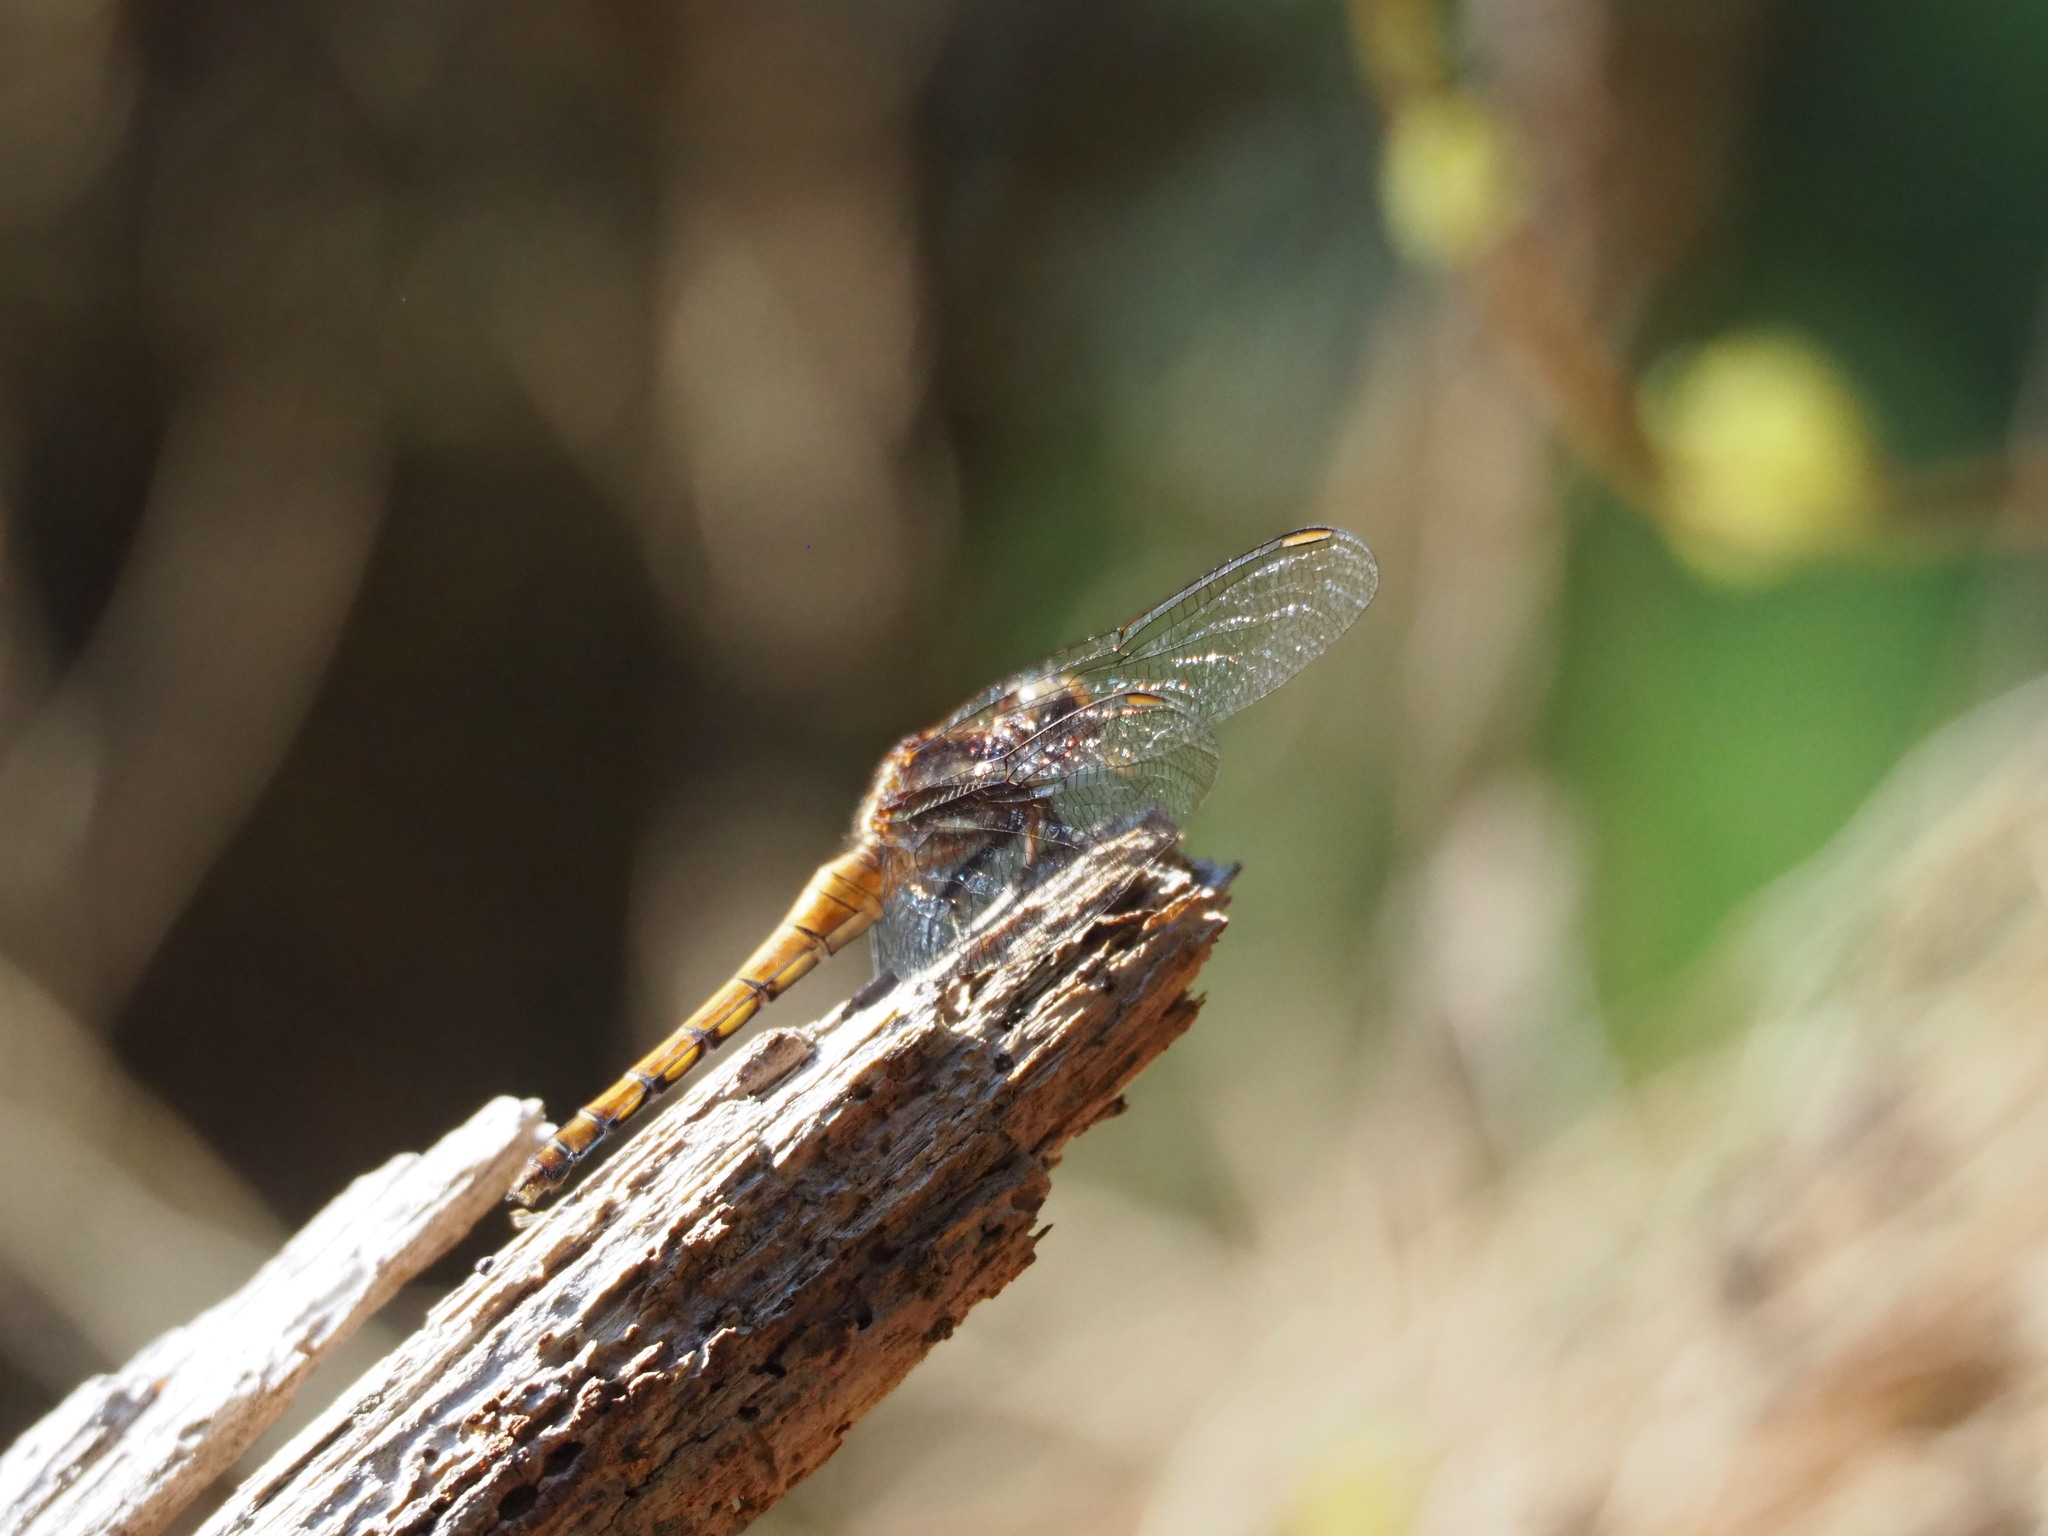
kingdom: Animalia
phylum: Arthropoda
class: Insecta
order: Odonata
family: Libellulidae
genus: Orthetrum
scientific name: Orthetrum glaucum
